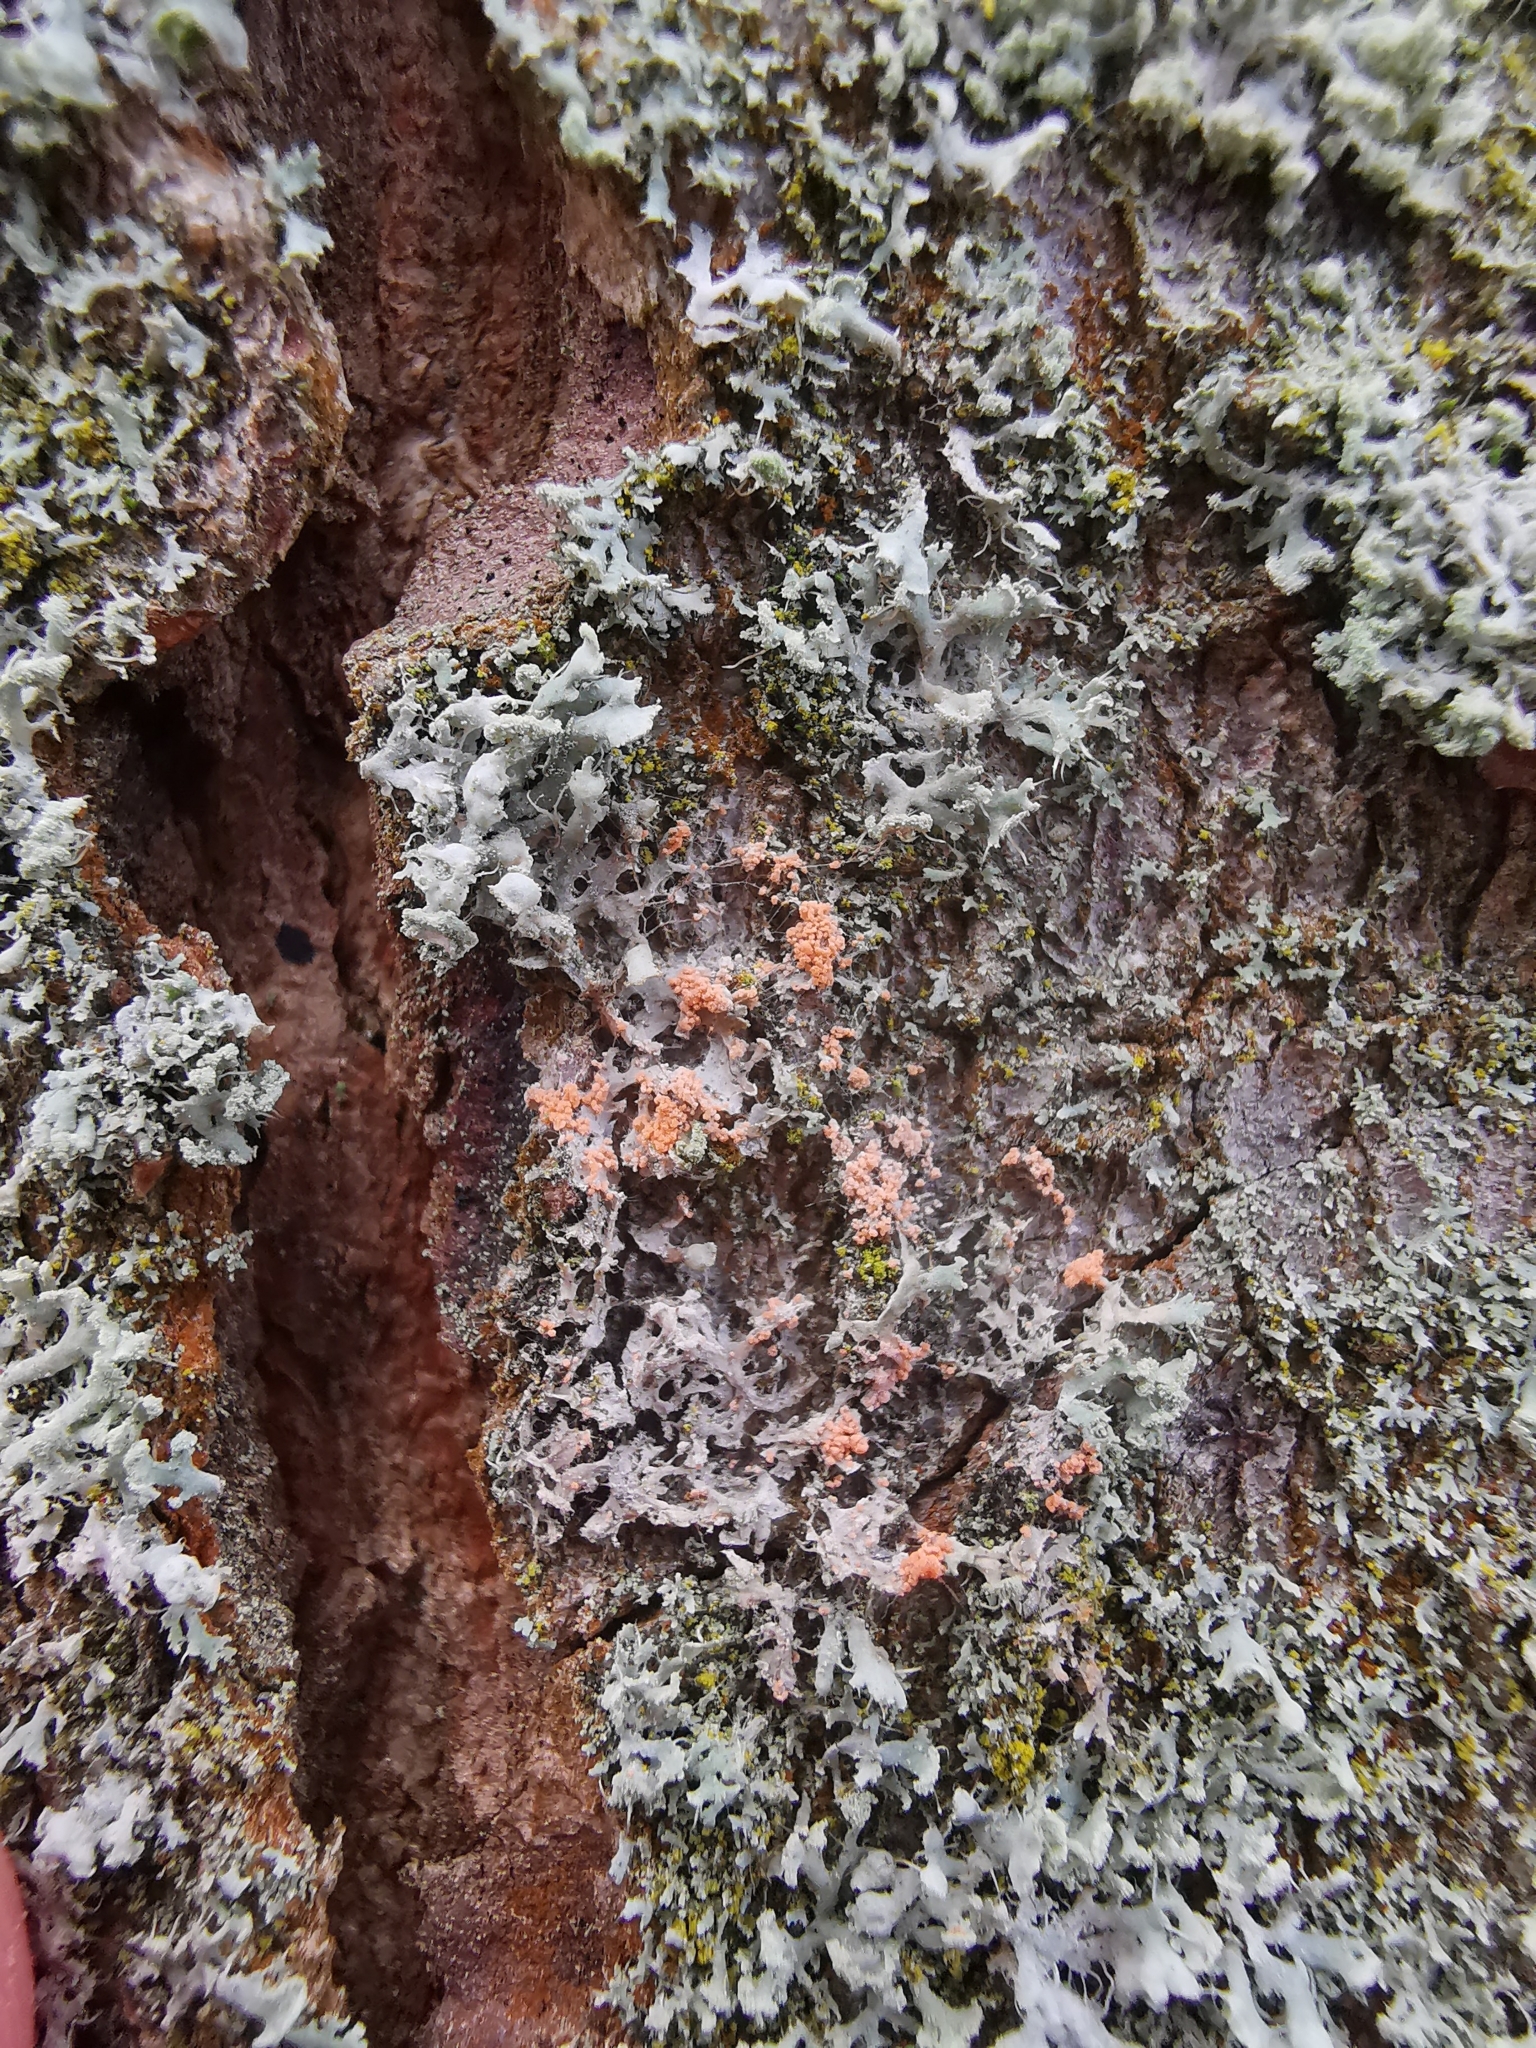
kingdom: Fungi
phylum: Basidiomycota
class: Agaricomycetes
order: Corticiales
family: Corticiaceae
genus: Erythricium
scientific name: Erythricium aurantiacum
